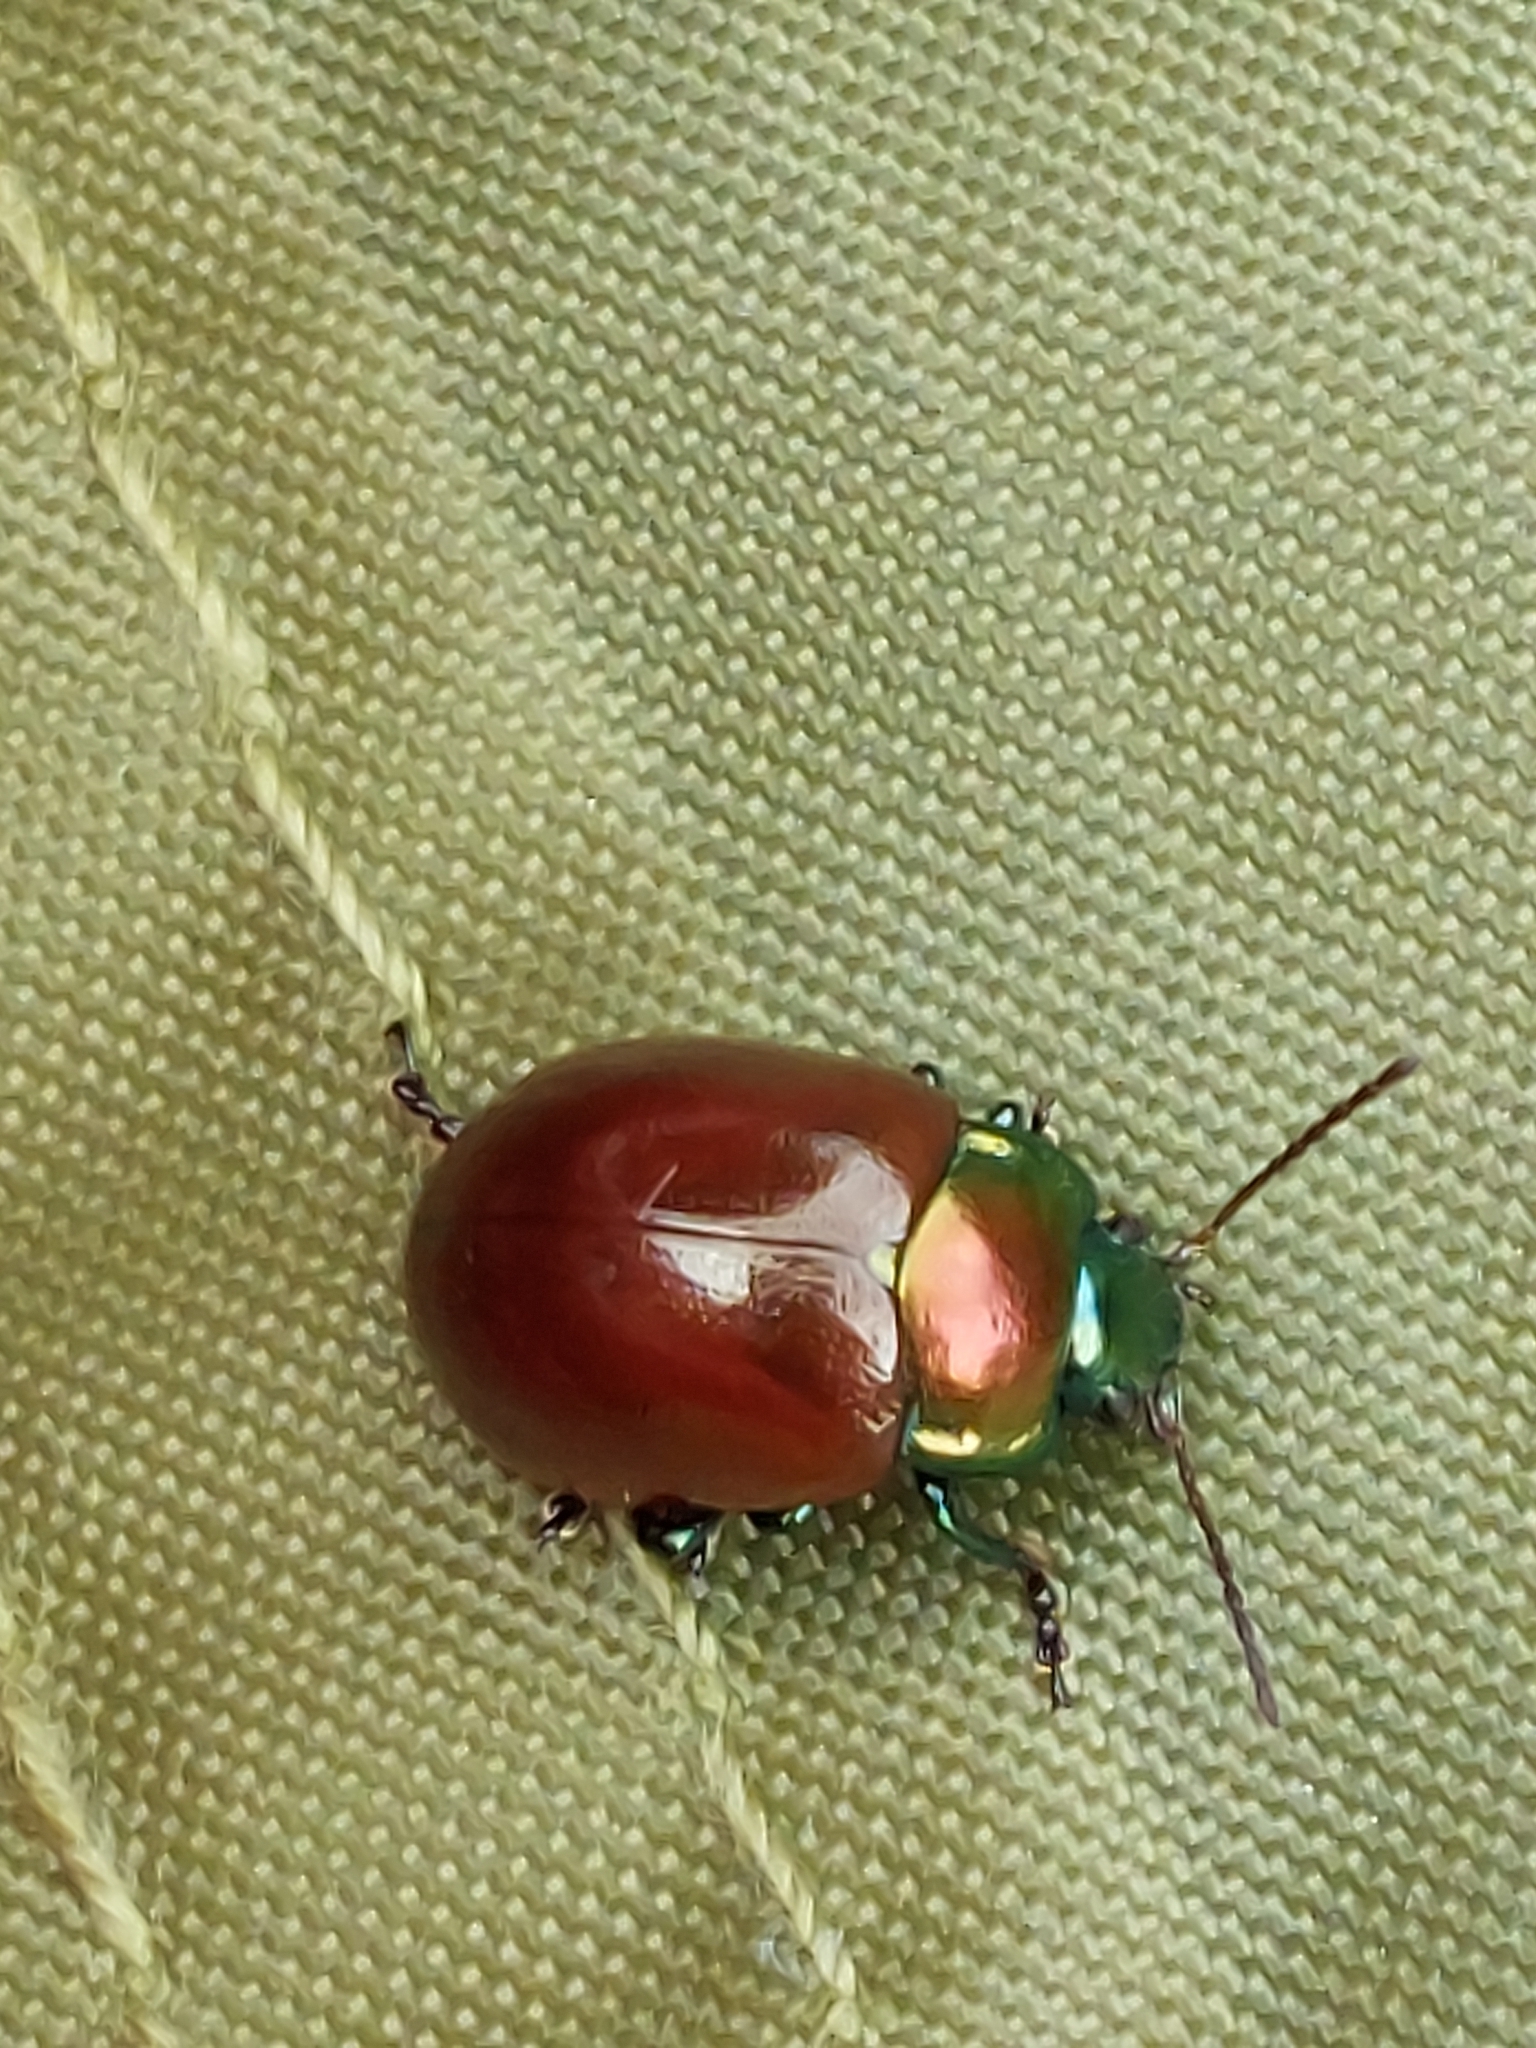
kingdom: Animalia
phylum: Arthropoda
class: Insecta
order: Coleoptera
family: Chrysomelidae
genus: Chrysomela
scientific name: Chrysomela polita
